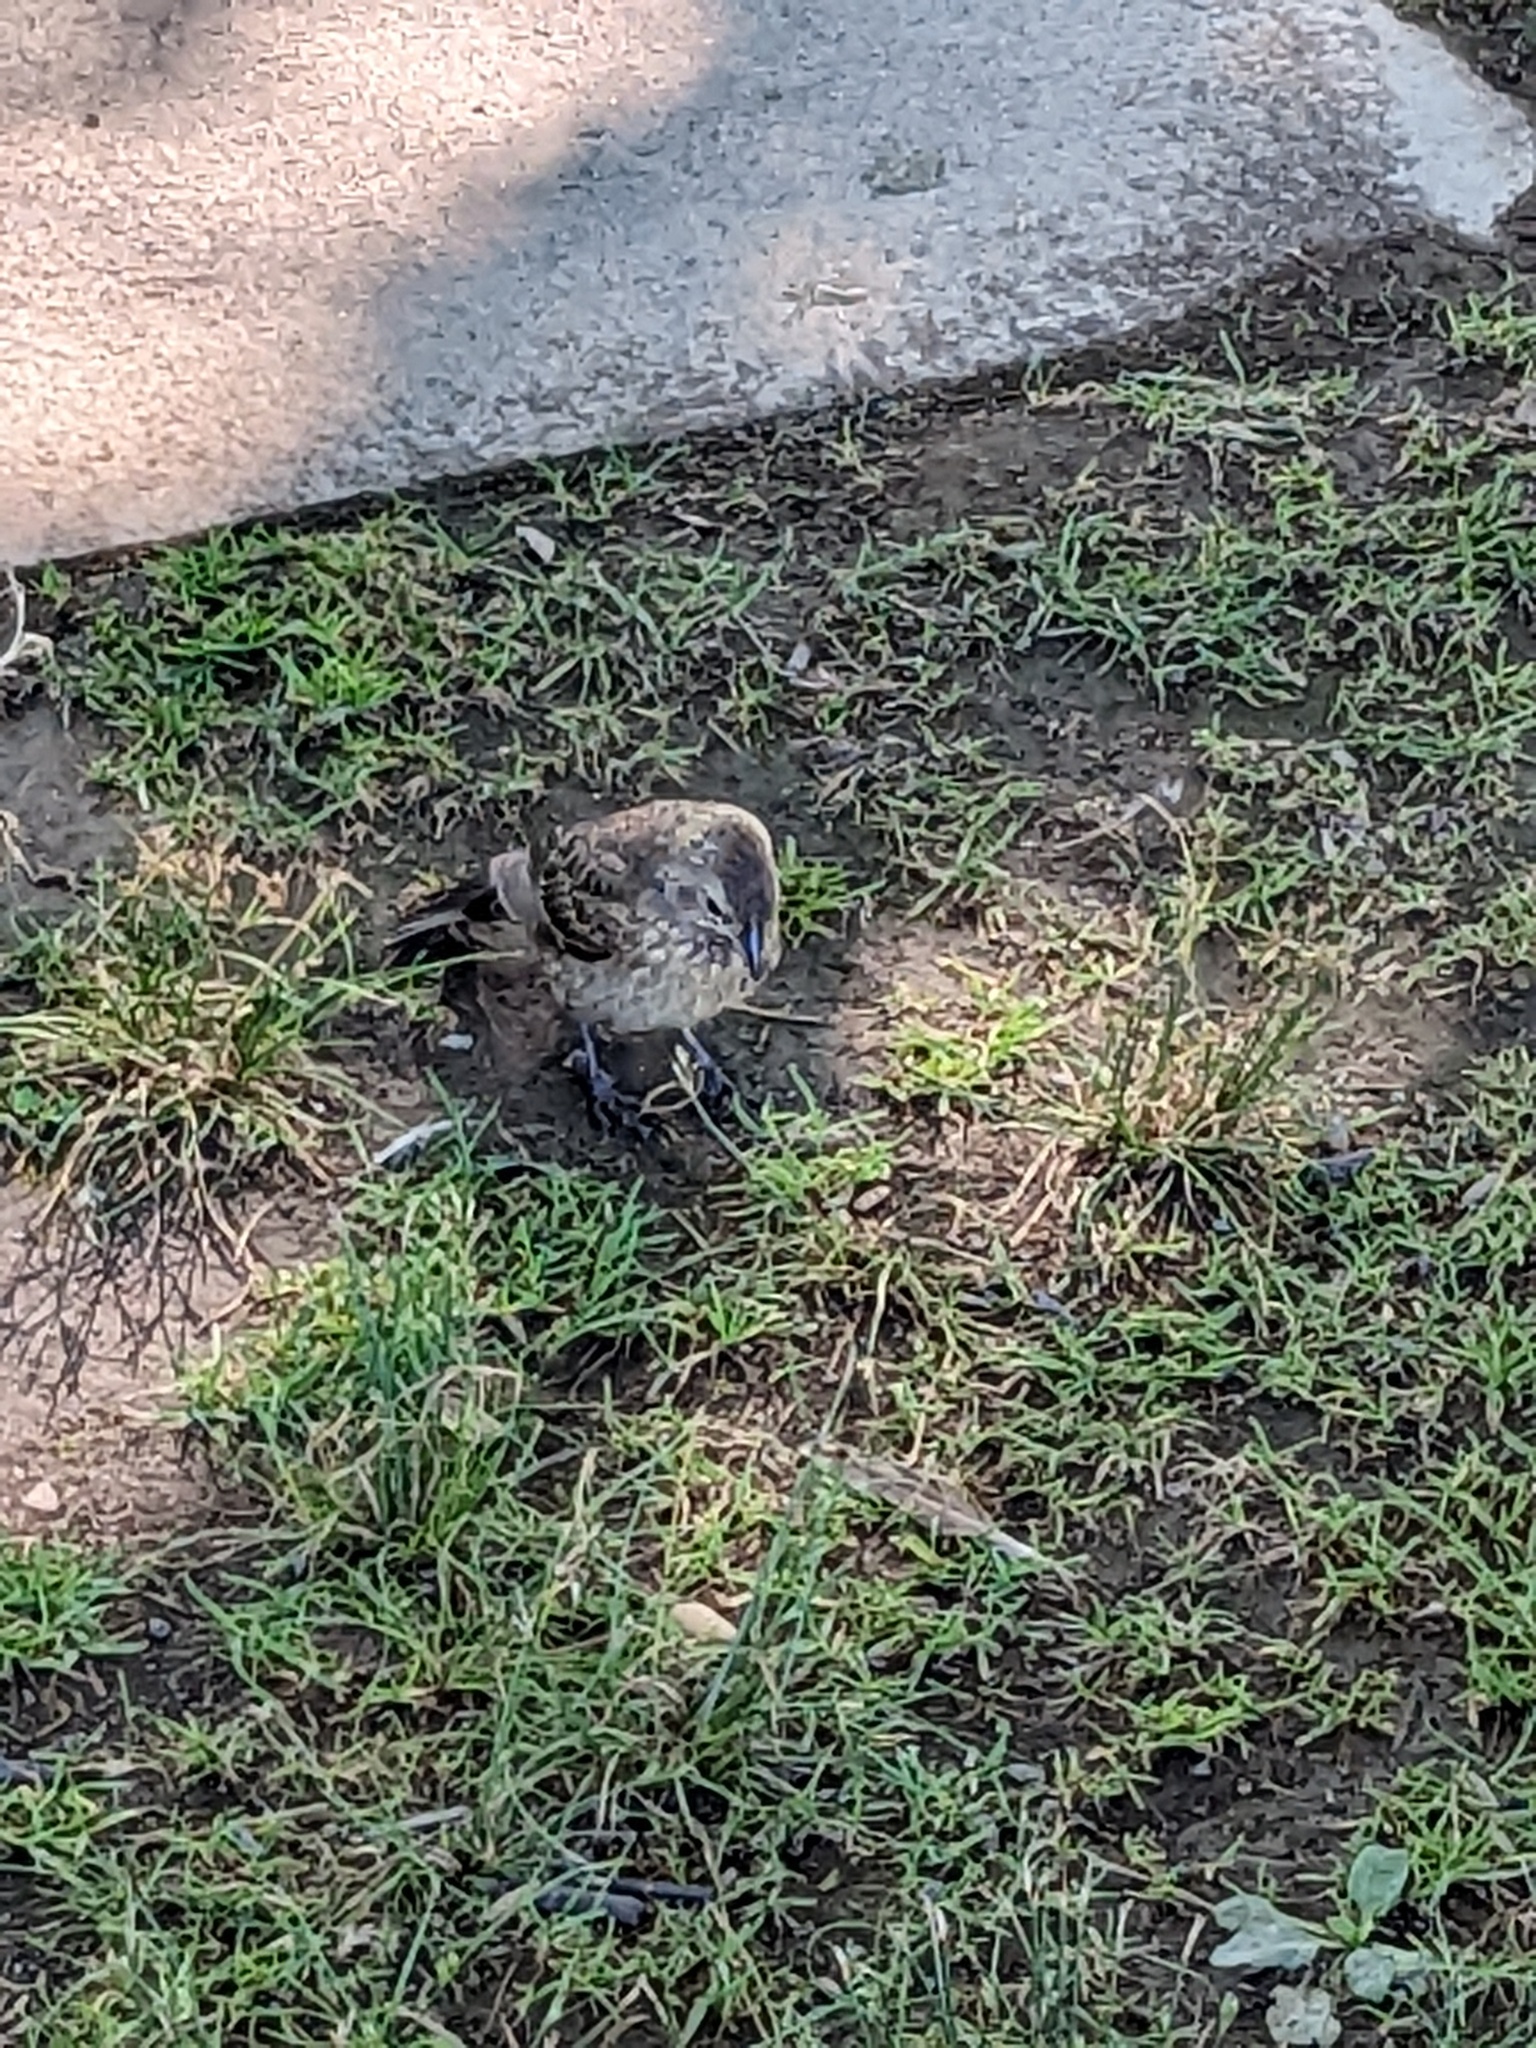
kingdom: Animalia
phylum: Chordata
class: Aves
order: Passeriformes
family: Icteridae
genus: Molothrus
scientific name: Molothrus ater
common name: Brown-headed cowbird
